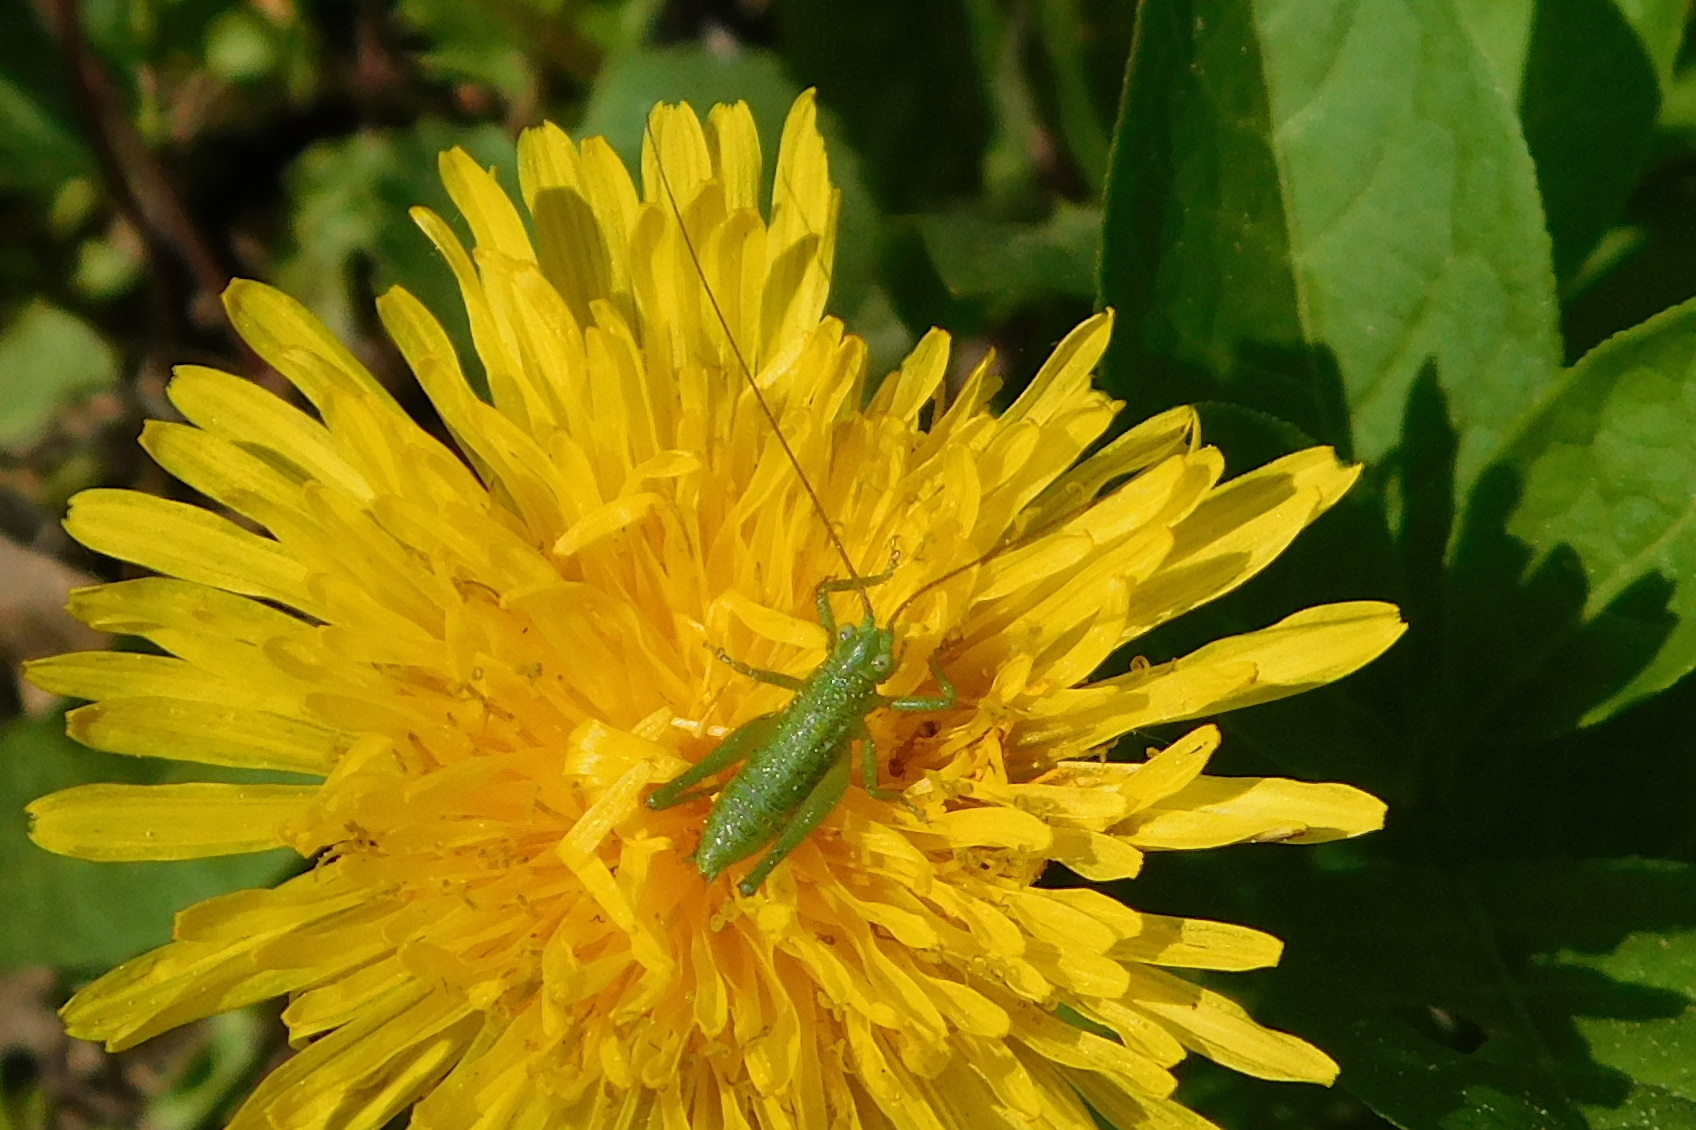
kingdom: Animalia
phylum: Arthropoda
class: Insecta
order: Orthoptera
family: Tettigoniidae
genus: Tettigonia
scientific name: Tettigonia viridissima
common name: Great green bush-cricket
